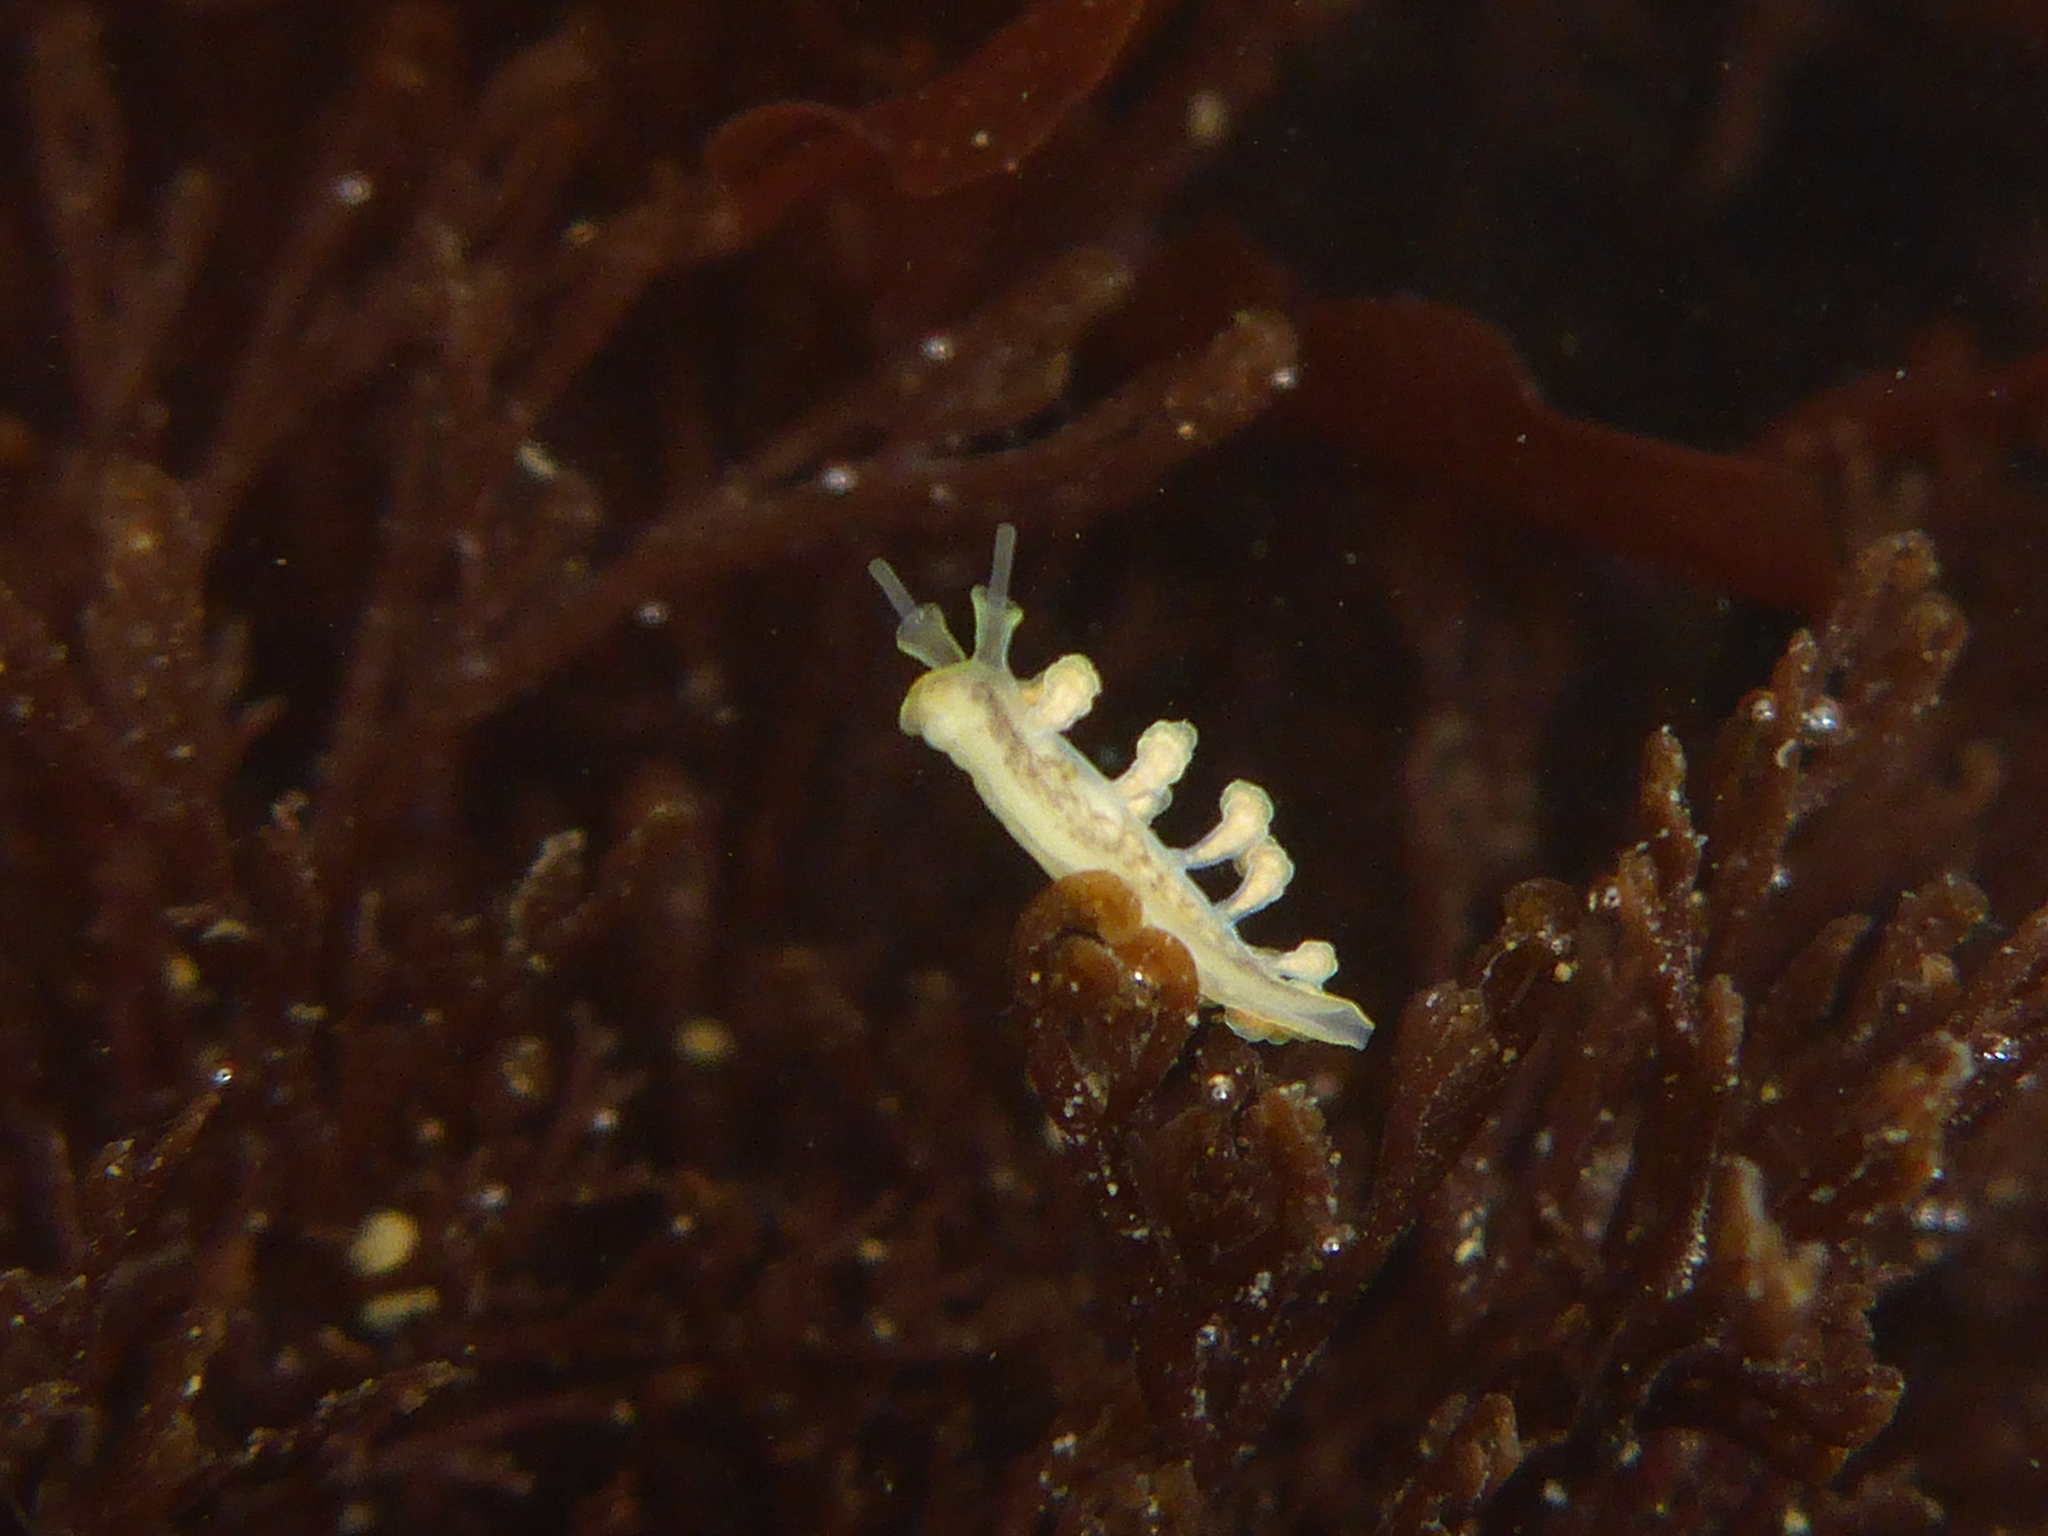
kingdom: Animalia
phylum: Mollusca
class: Gastropoda
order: Nudibranchia
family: Dotidae
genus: Doto
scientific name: Doto columbiana
